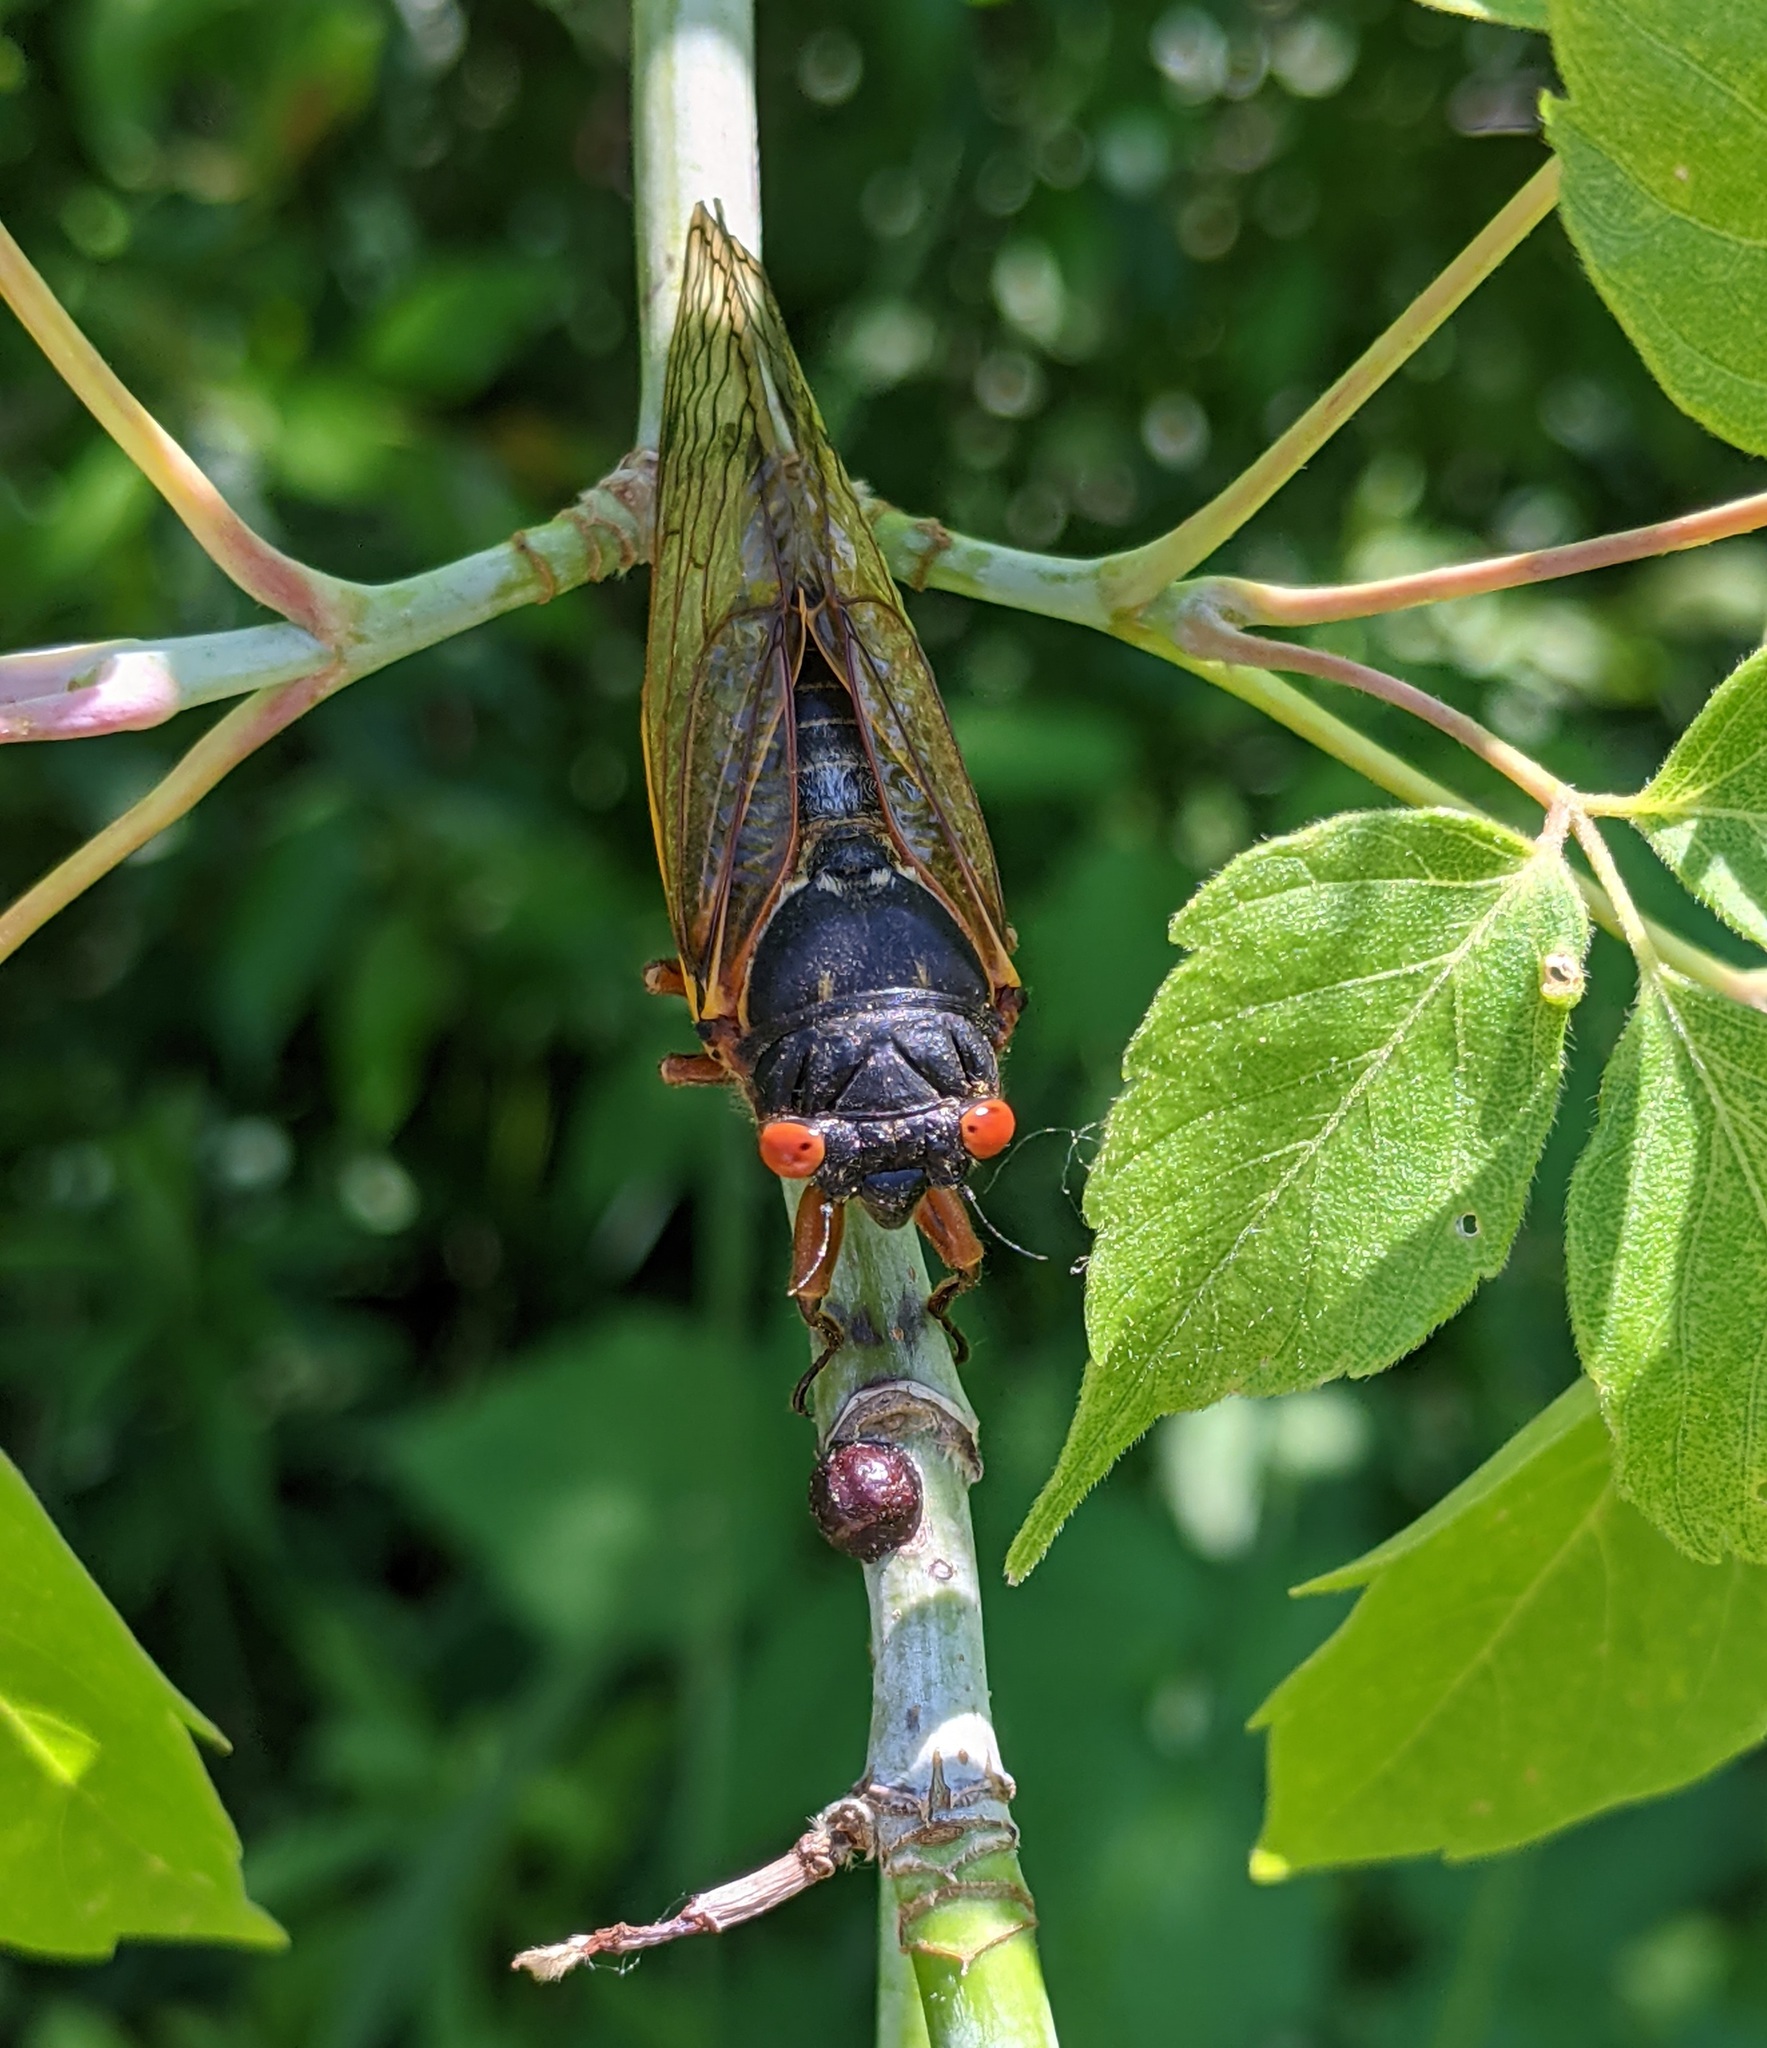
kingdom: Animalia
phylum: Arthropoda
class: Insecta
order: Hemiptera
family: Cicadidae
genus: Magicicada
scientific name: Magicicada septendecim
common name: Periodical cicada
